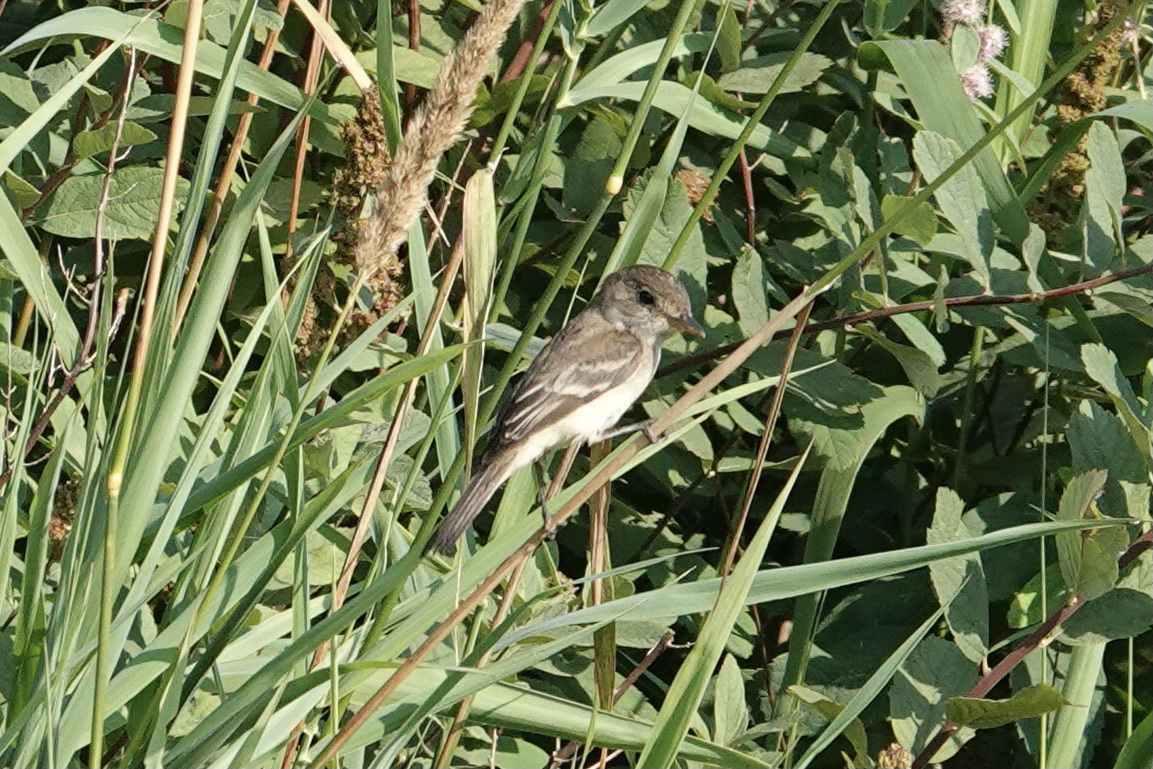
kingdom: Animalia
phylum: Chordata
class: Aves
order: Passeriformes
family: Tyrannidae
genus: Empidonax
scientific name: Empidonax traillii
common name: Willow flycatcher
